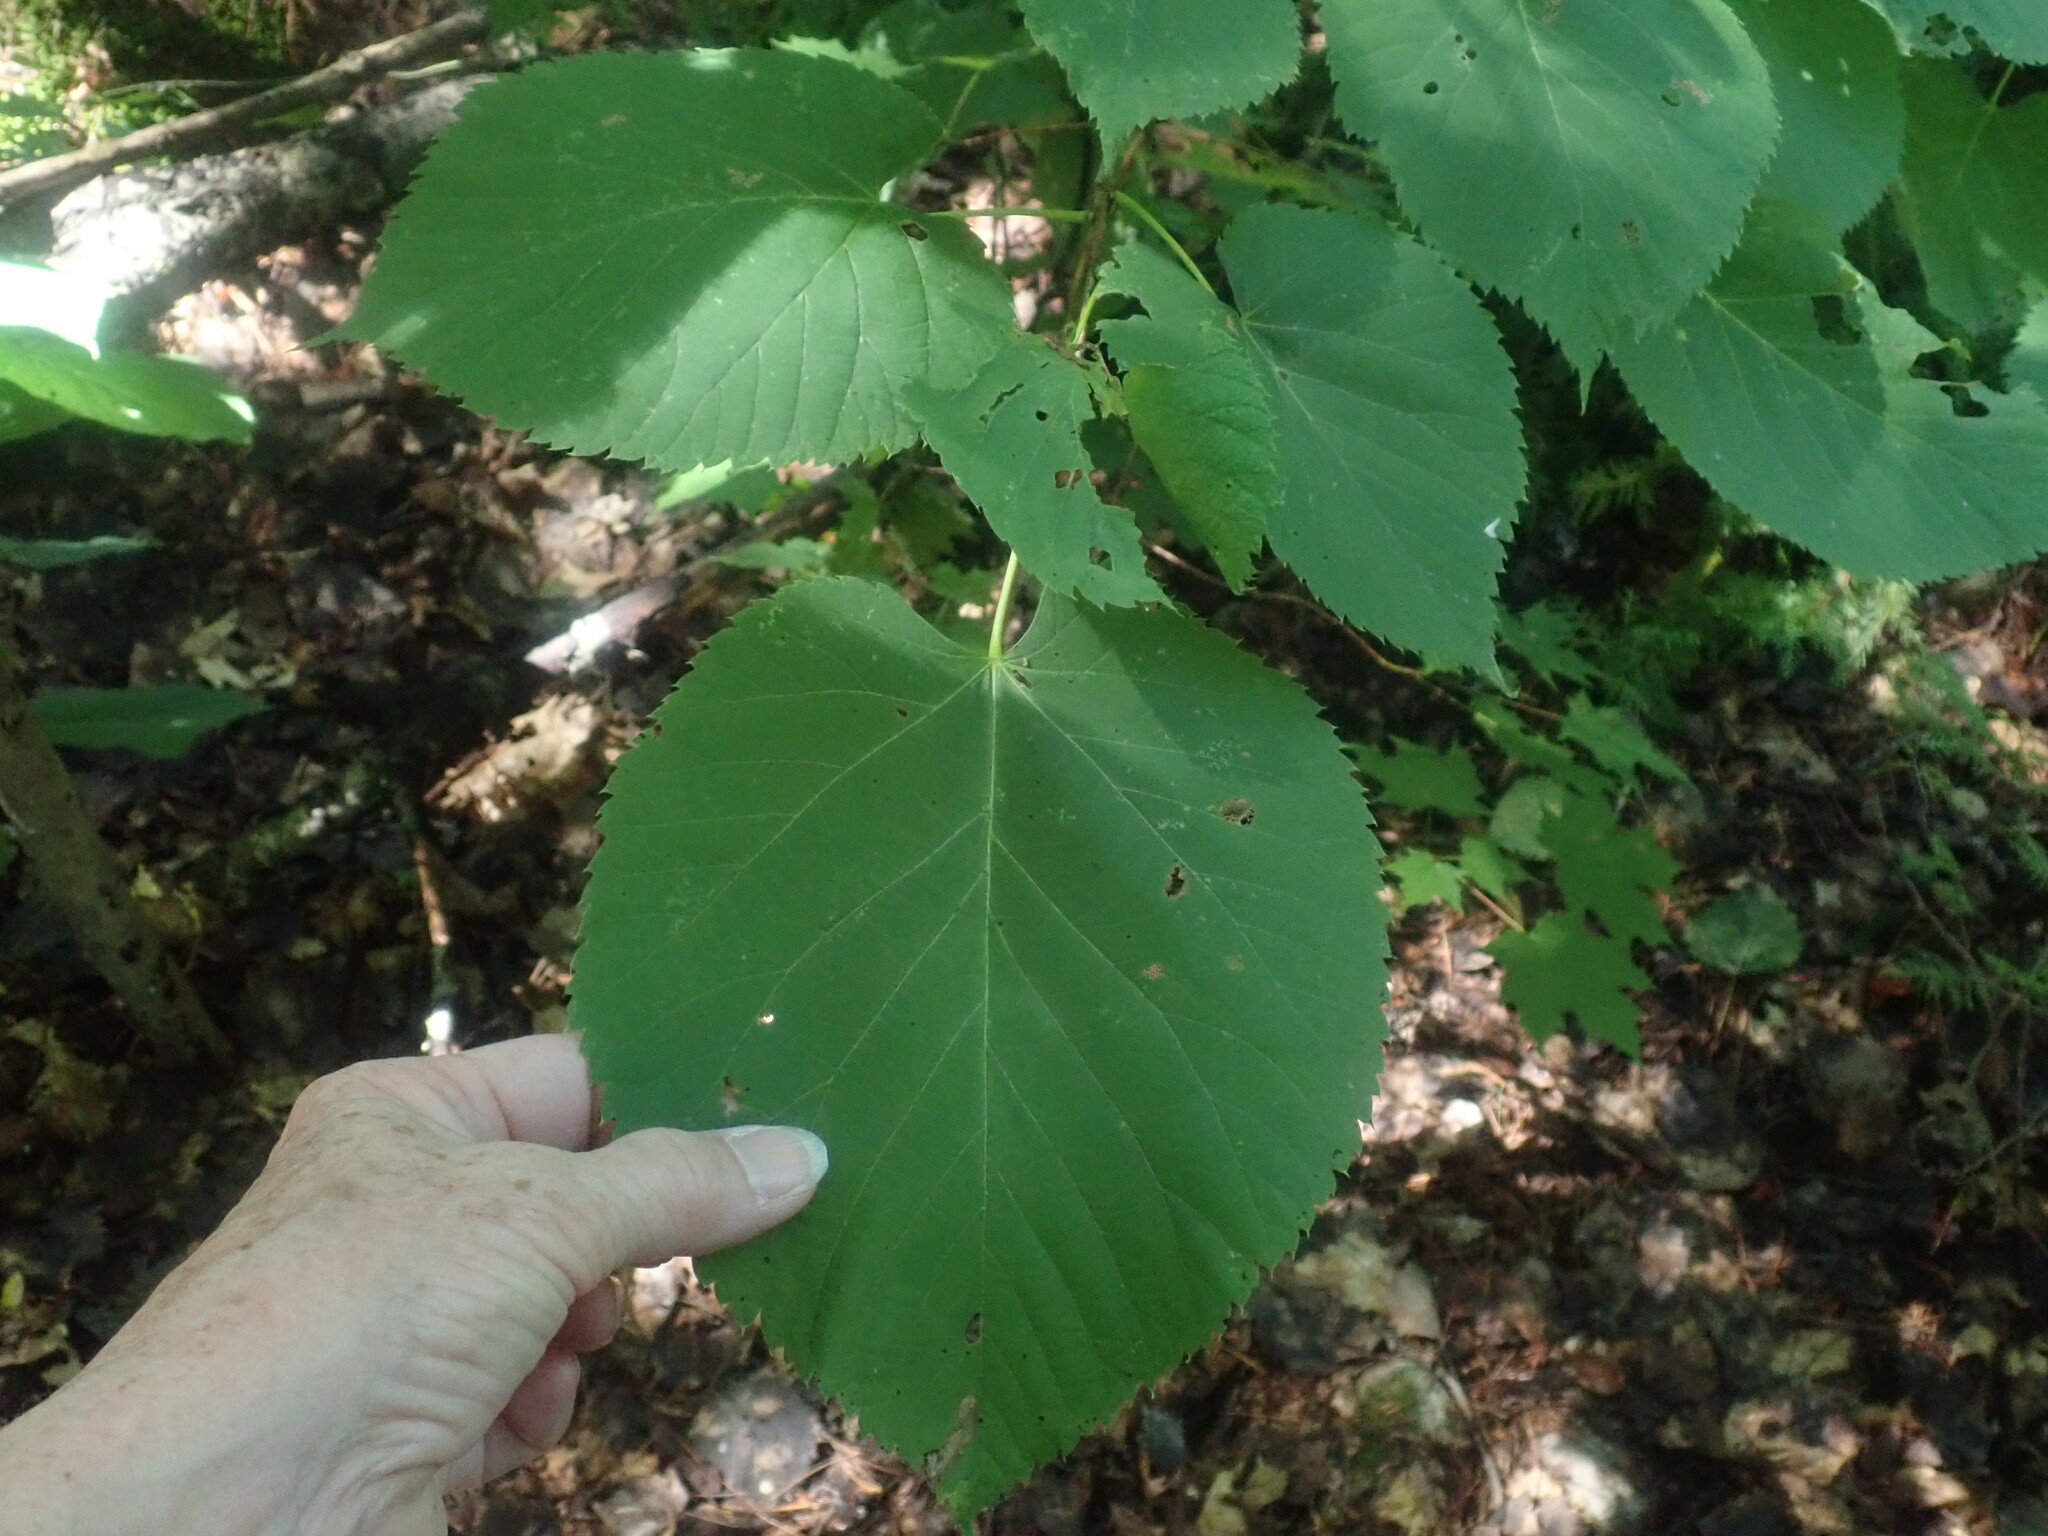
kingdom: Plantae
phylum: Tracheophyta
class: Magnoliopsida
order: Malvales
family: Malvaceae
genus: Tilia
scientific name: Tilia americana
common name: Basswood
